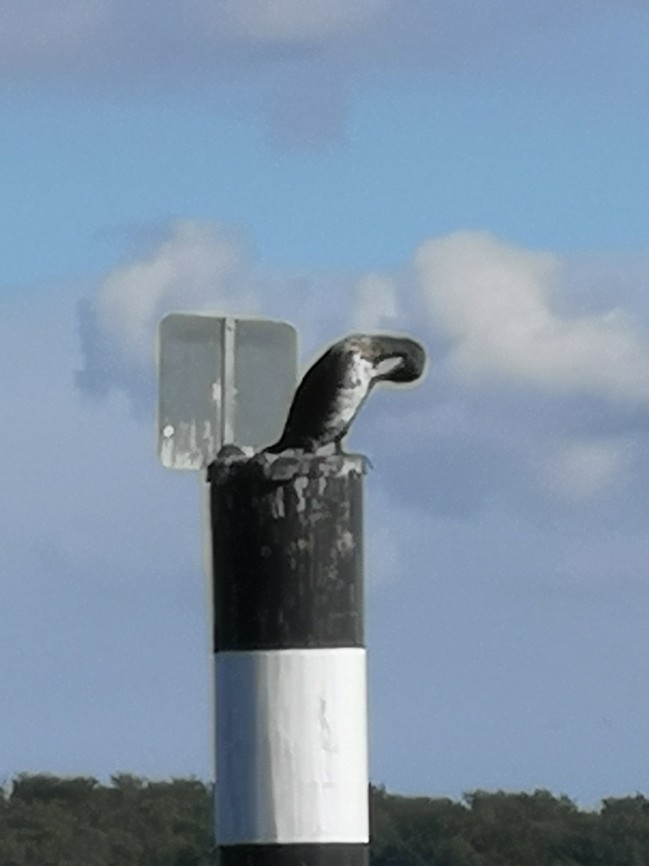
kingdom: Animalia
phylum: Chordata
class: Aves
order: Suliformes
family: Phalacrocoracidae
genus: Phalacrocorax
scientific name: Phalacrocorax carbo
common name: Great cormorant
